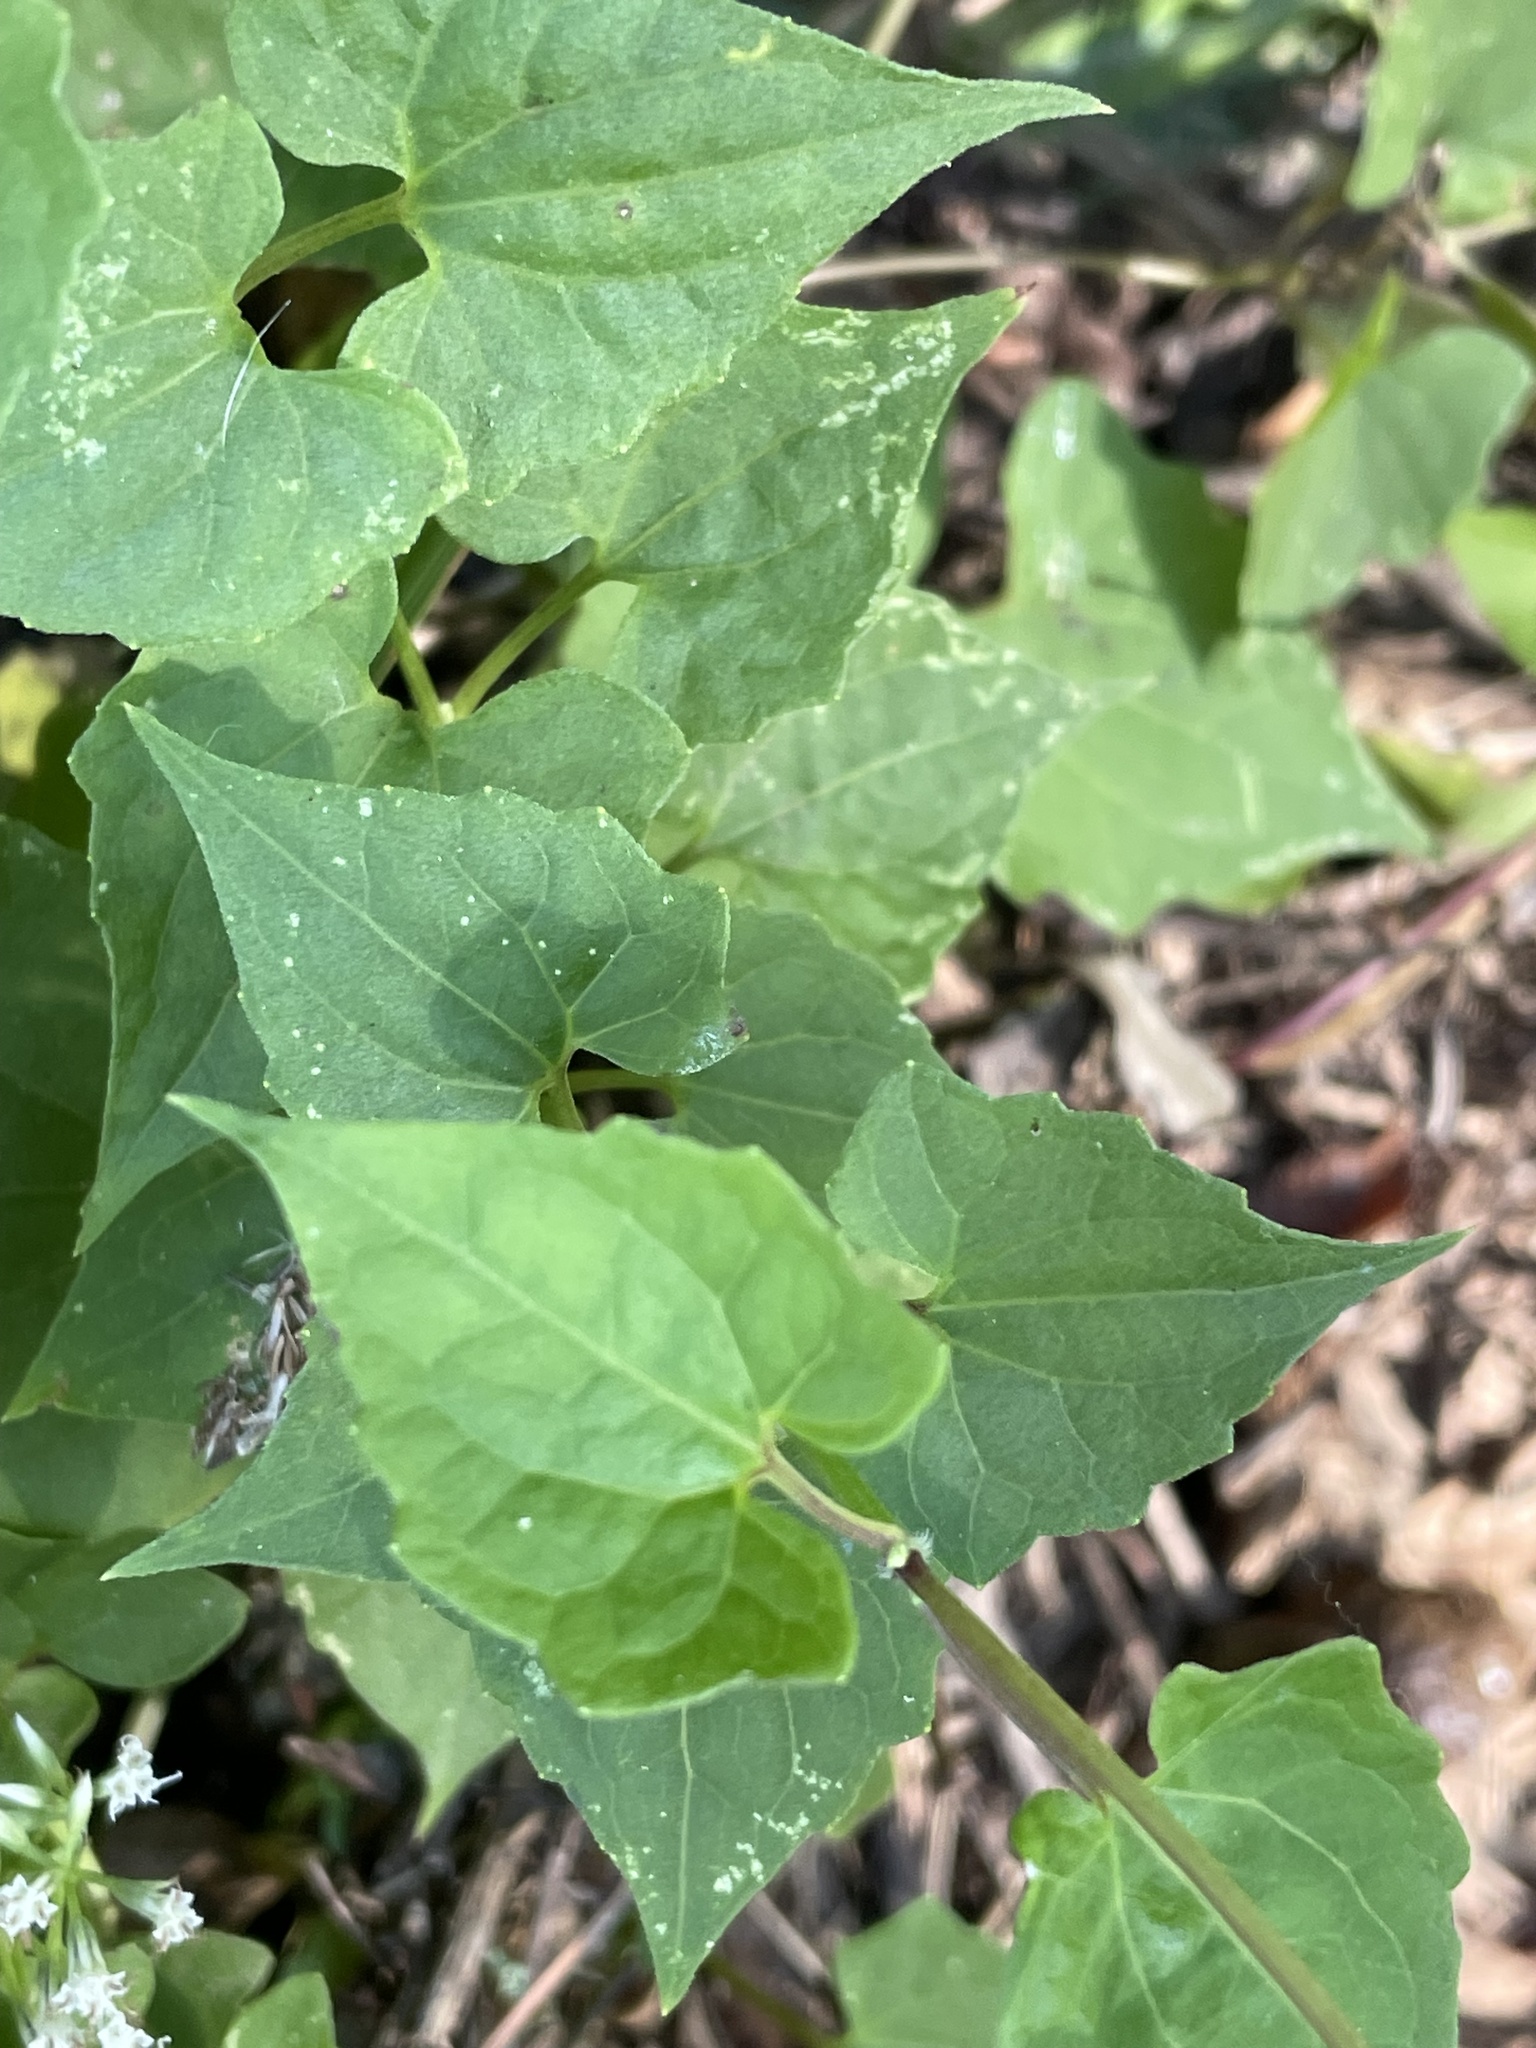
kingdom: Plantae
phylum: Tracheophyta
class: Magnoliopsida
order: Asterales
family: Asteraceae
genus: Mikania
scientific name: Mikania scandens
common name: Climbing hempvine
